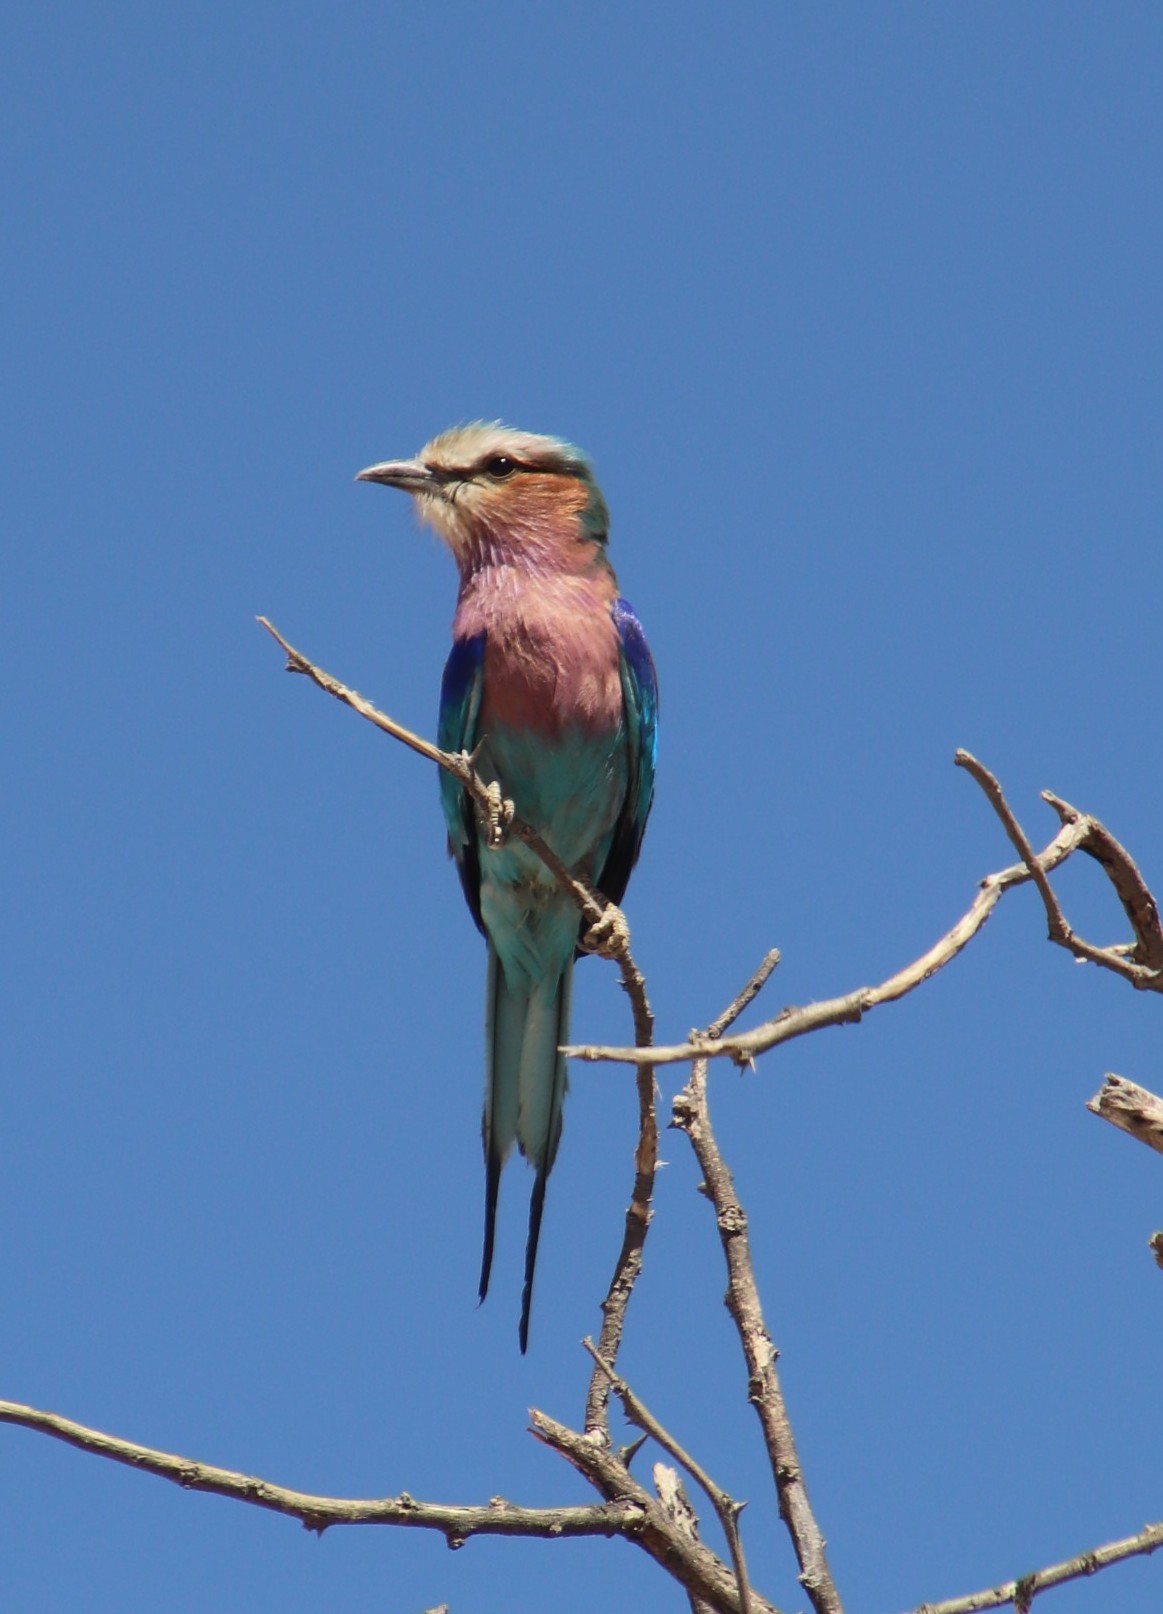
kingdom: Animalia
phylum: Chordata
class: Aves
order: Coraciiformes
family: Coraciidae
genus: Coracias
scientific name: Coracias caudatus
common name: Lilac-breasted roller
